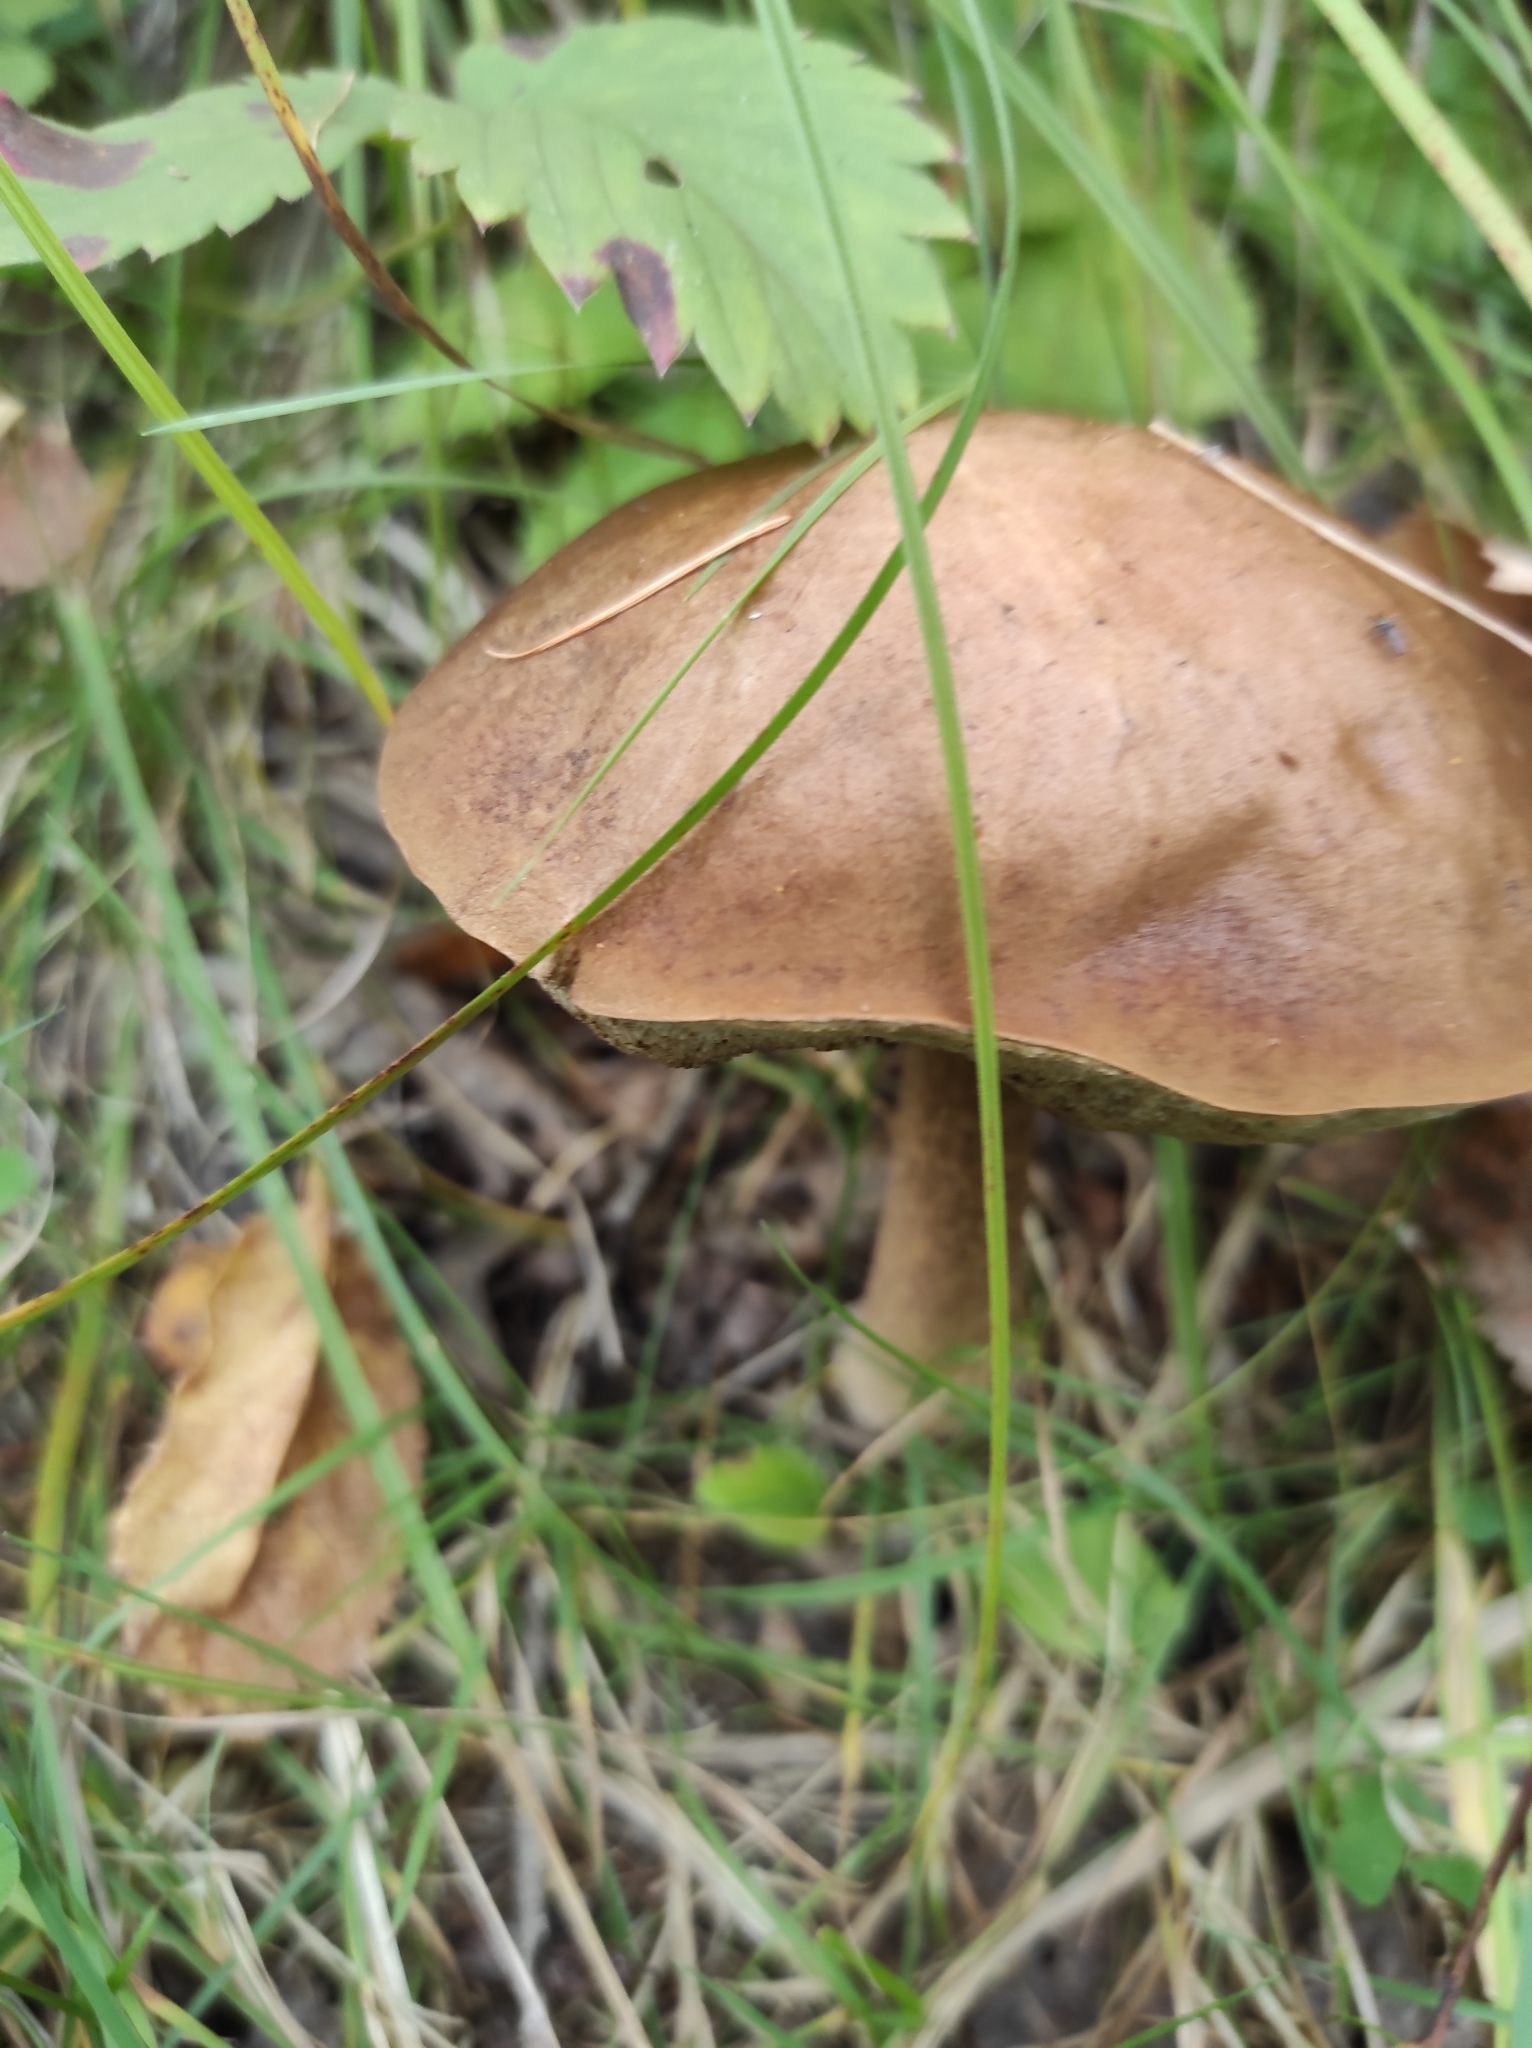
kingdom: Fungi
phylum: Basidiomycota
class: Agaricomycetes
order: Boletales
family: Boletaceae
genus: Leccinum
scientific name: Leccinum scabrum
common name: Blushing bolete
